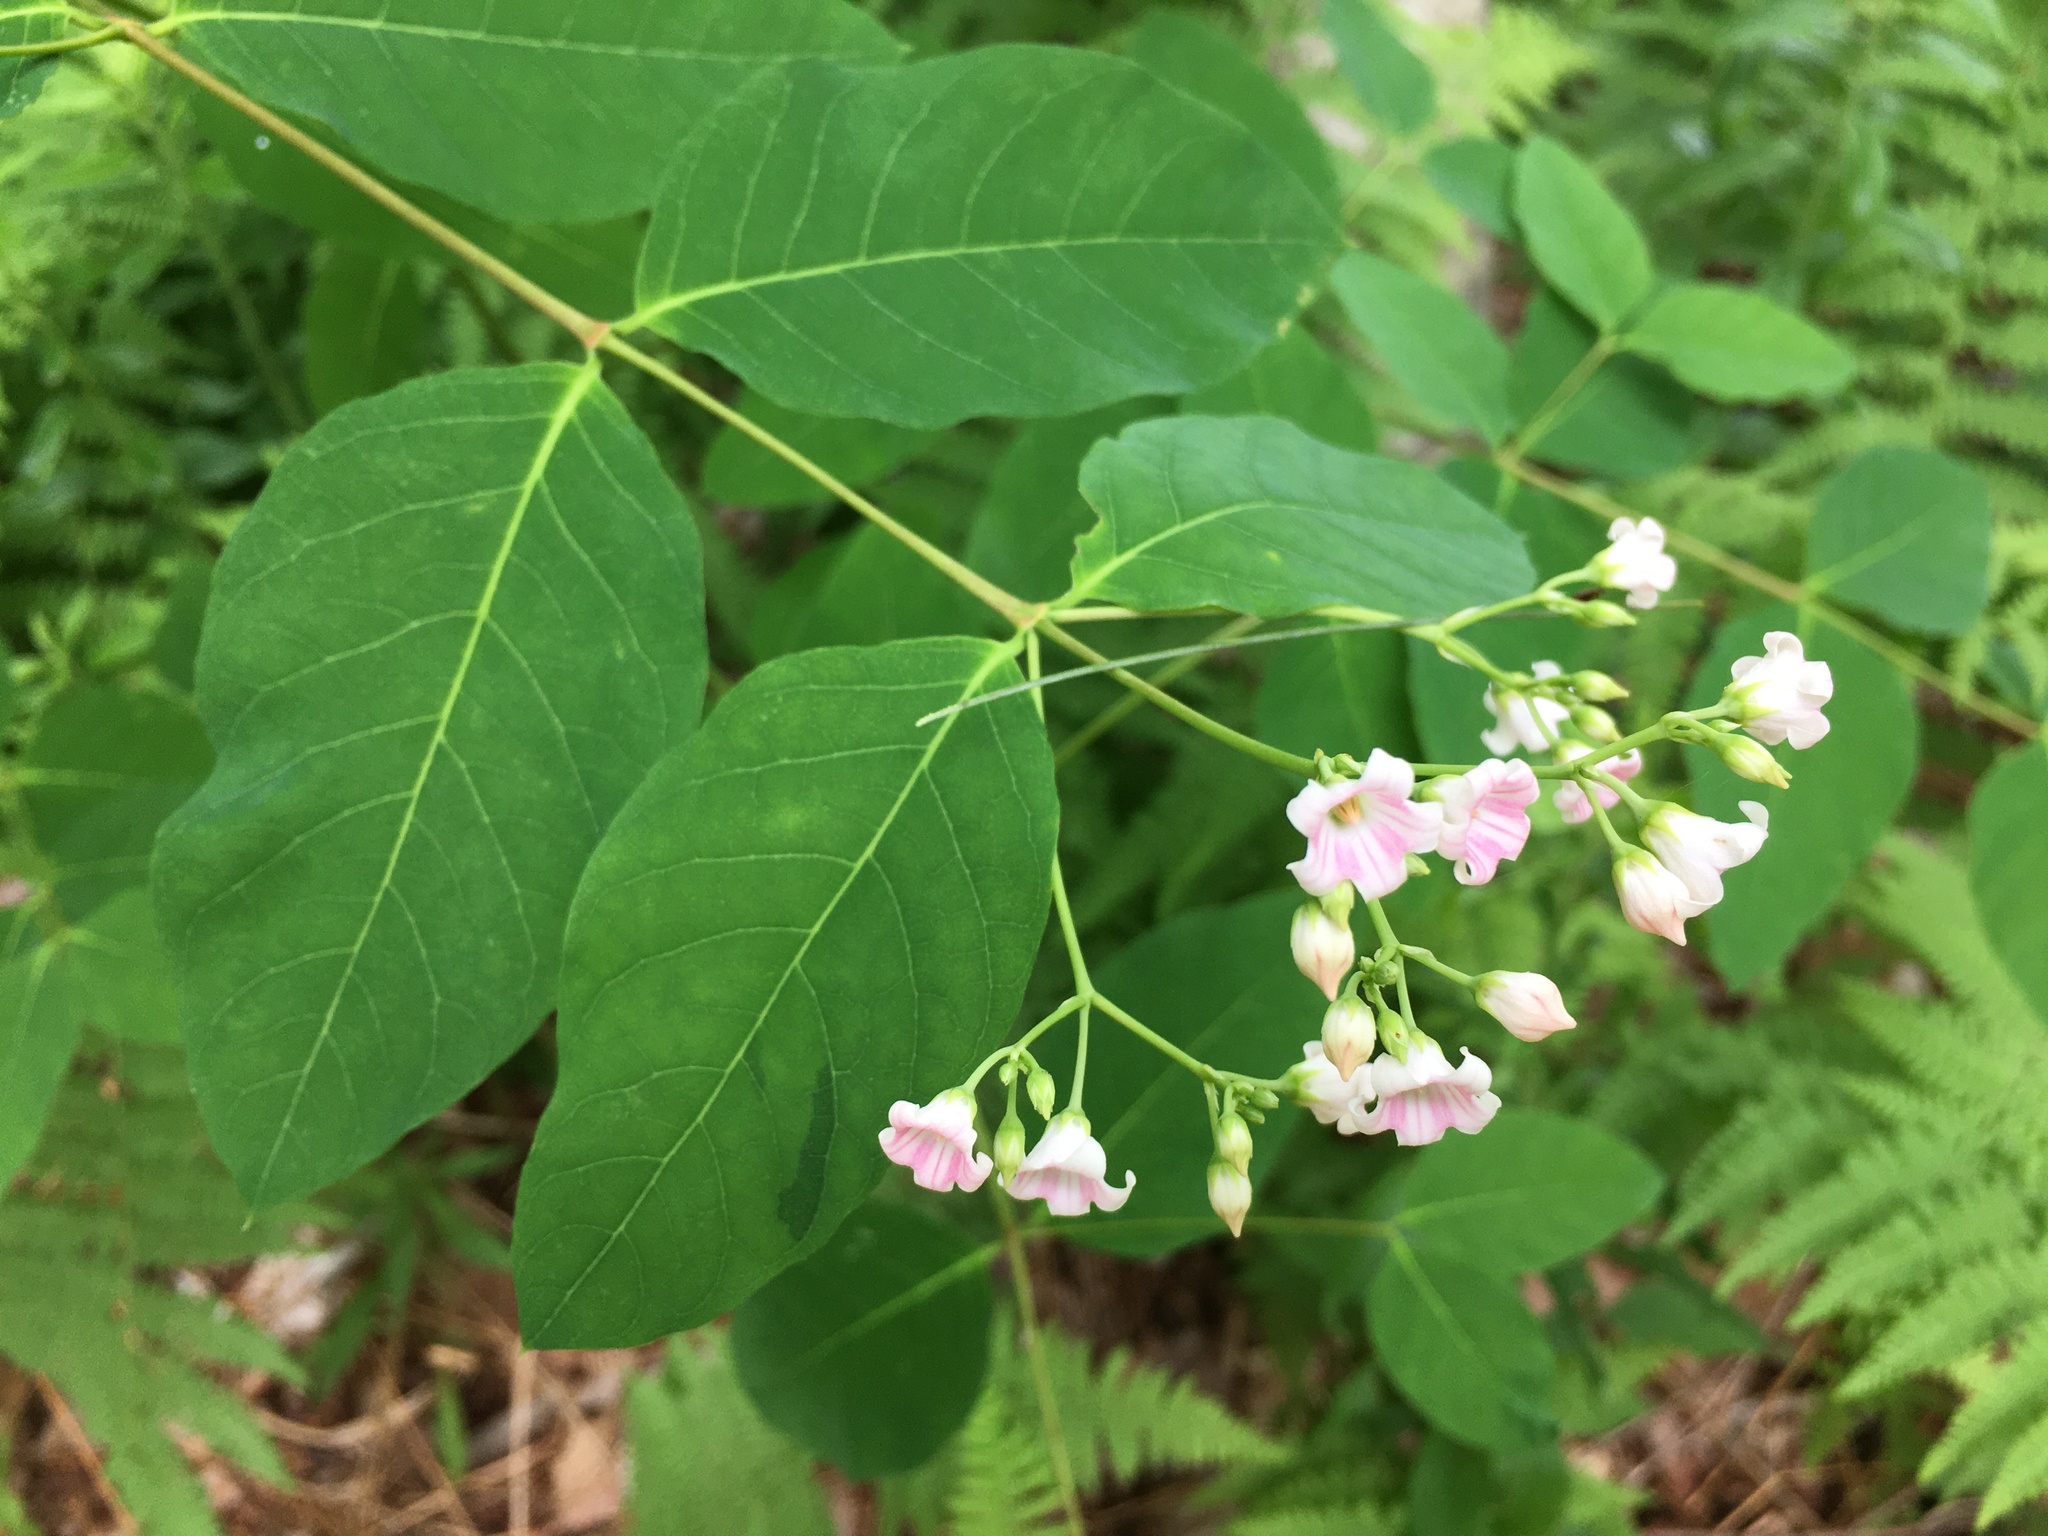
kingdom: Plantae
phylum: Tracheophyta
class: Magnoliopsida
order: Gentianales
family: Apocynaceae
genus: Apocynum
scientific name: Apocynum androsaemifolium
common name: Spreading dogbane
